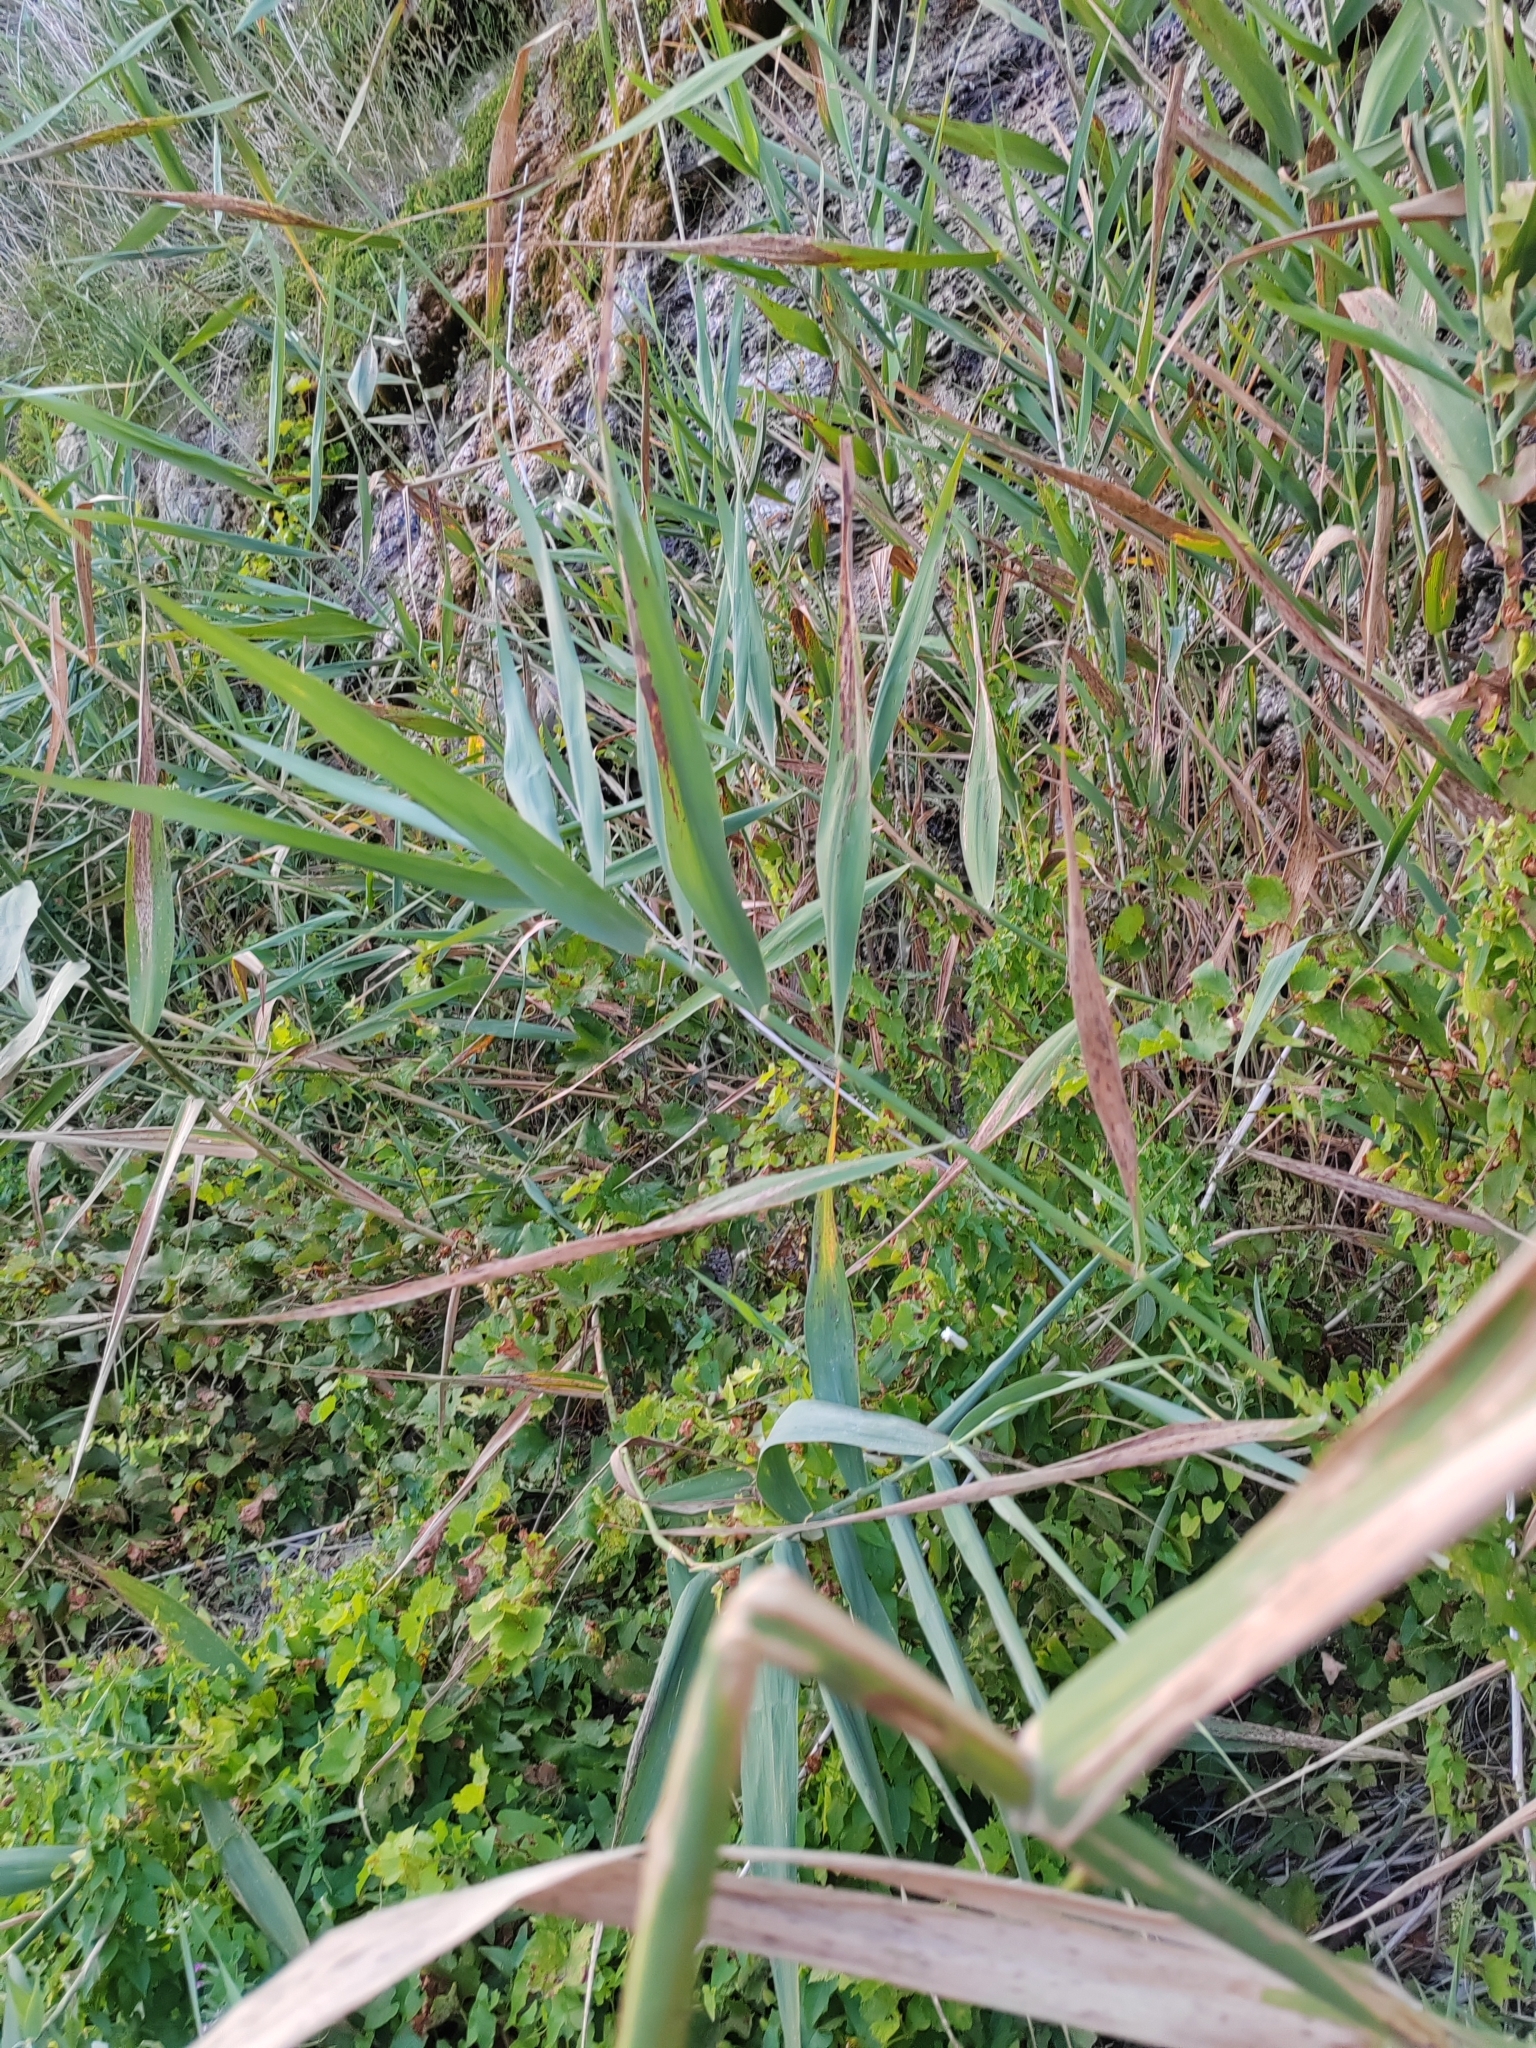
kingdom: Plantae
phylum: Tracheophyta
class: Liliopsida
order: Poales
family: Poaceae
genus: Phragmites
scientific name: Phragmites australis
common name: Common reed
